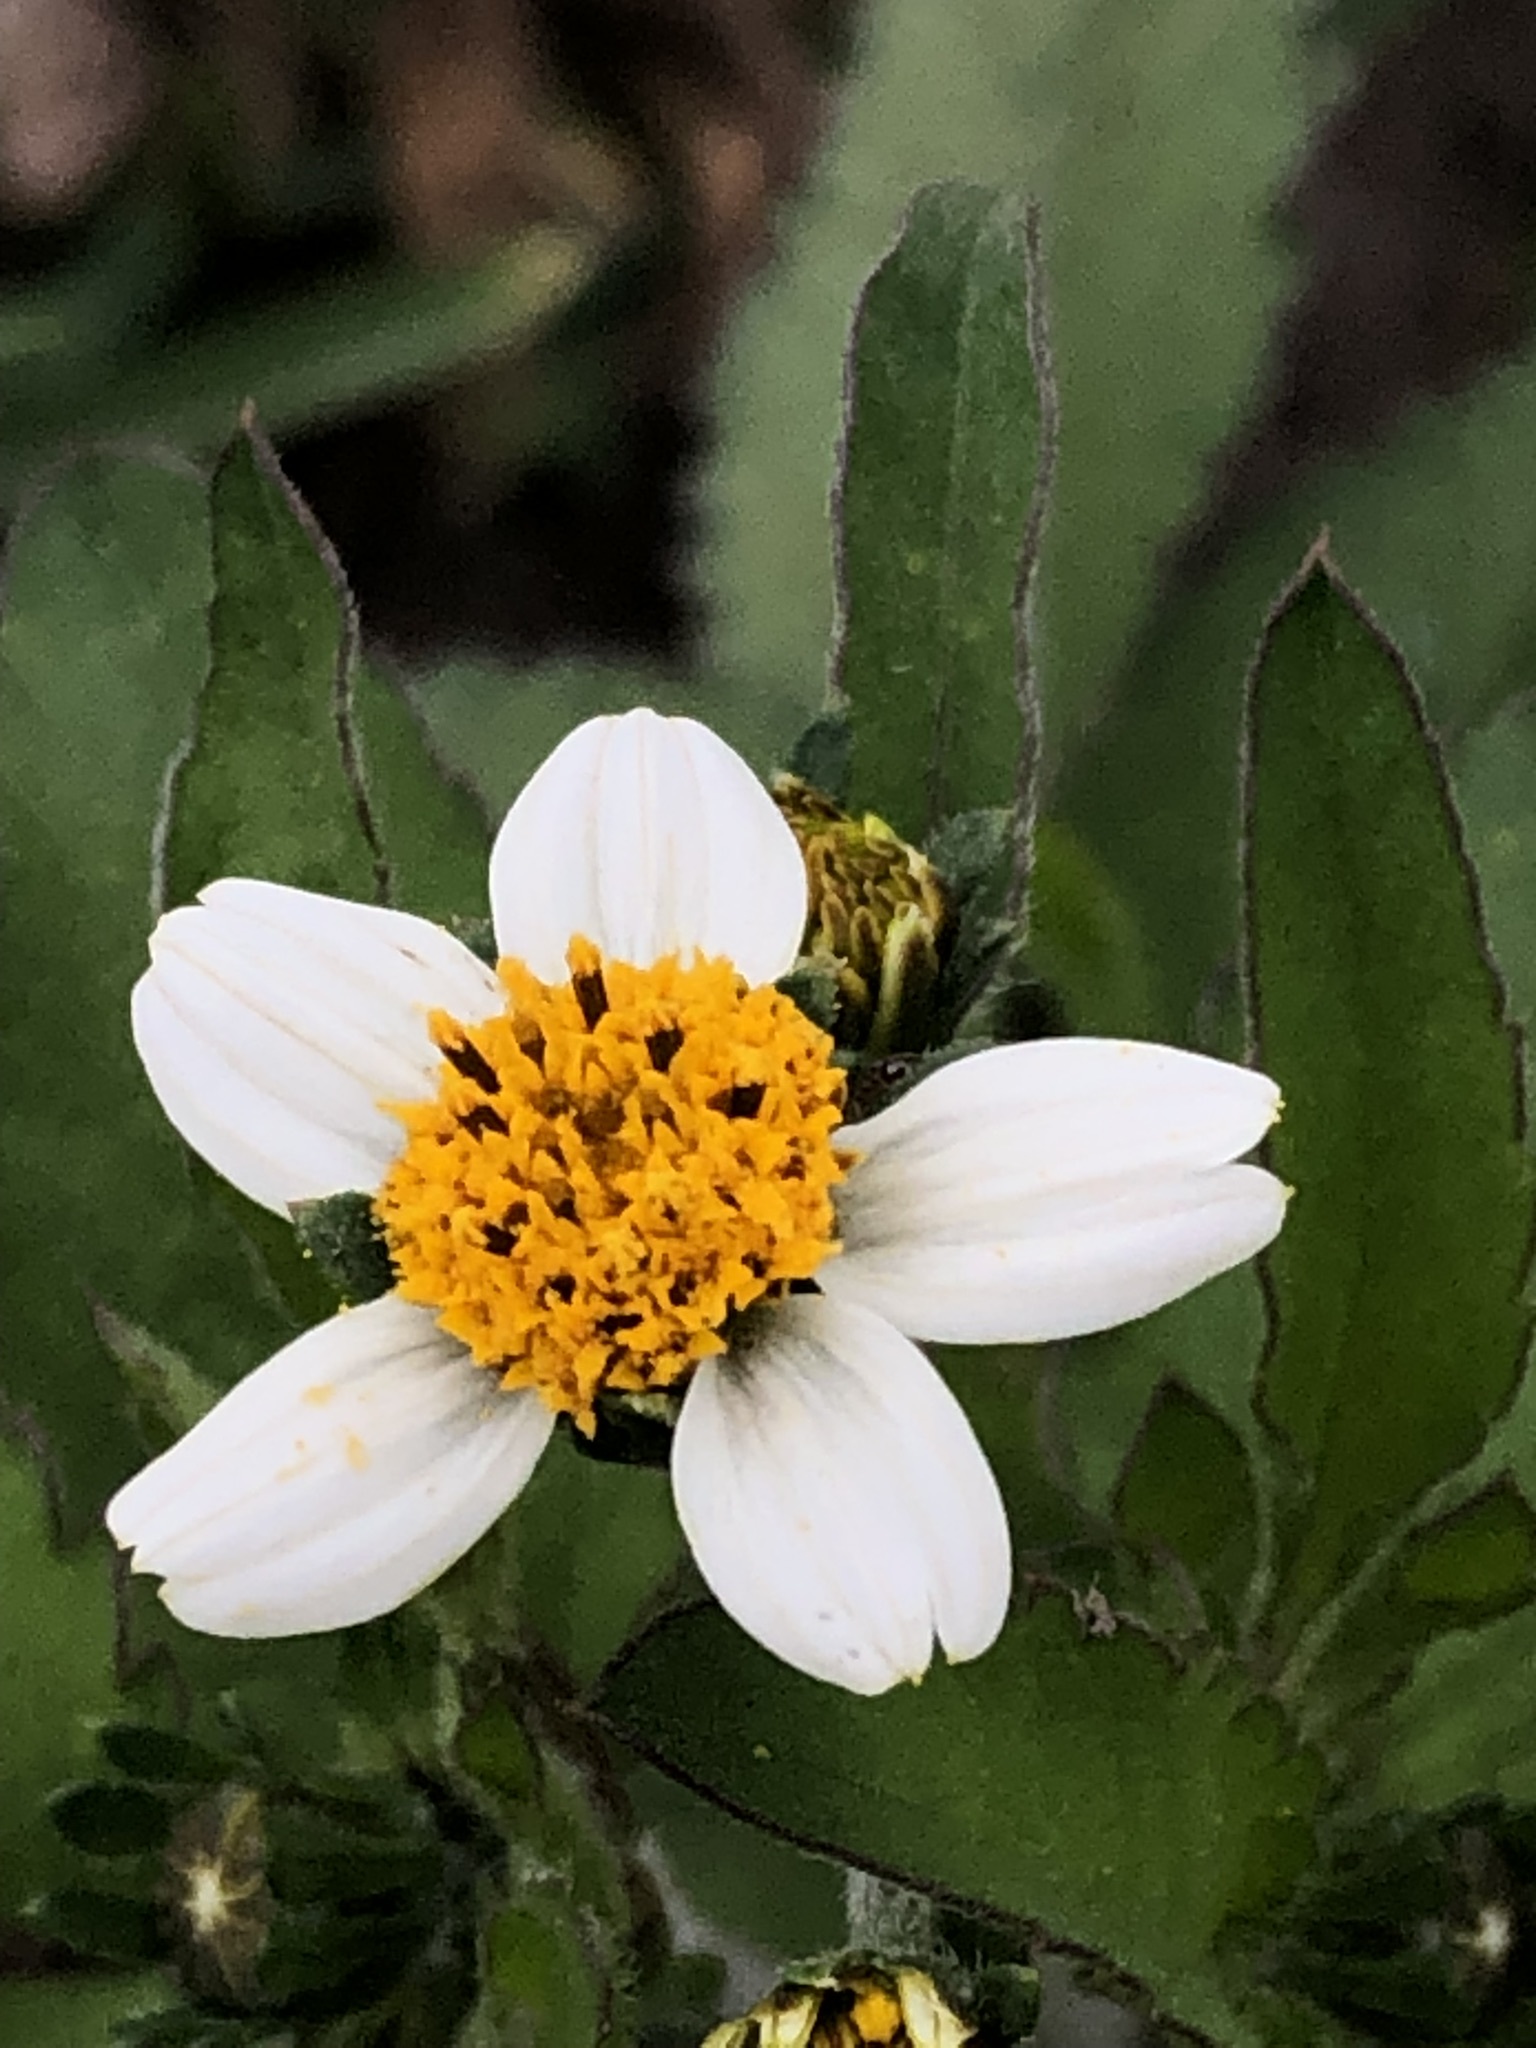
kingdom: Plantae
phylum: Tracheophyta
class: Magnoliopsida
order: Asterales
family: Asteraceae
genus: Bidens
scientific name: Bidens alba
